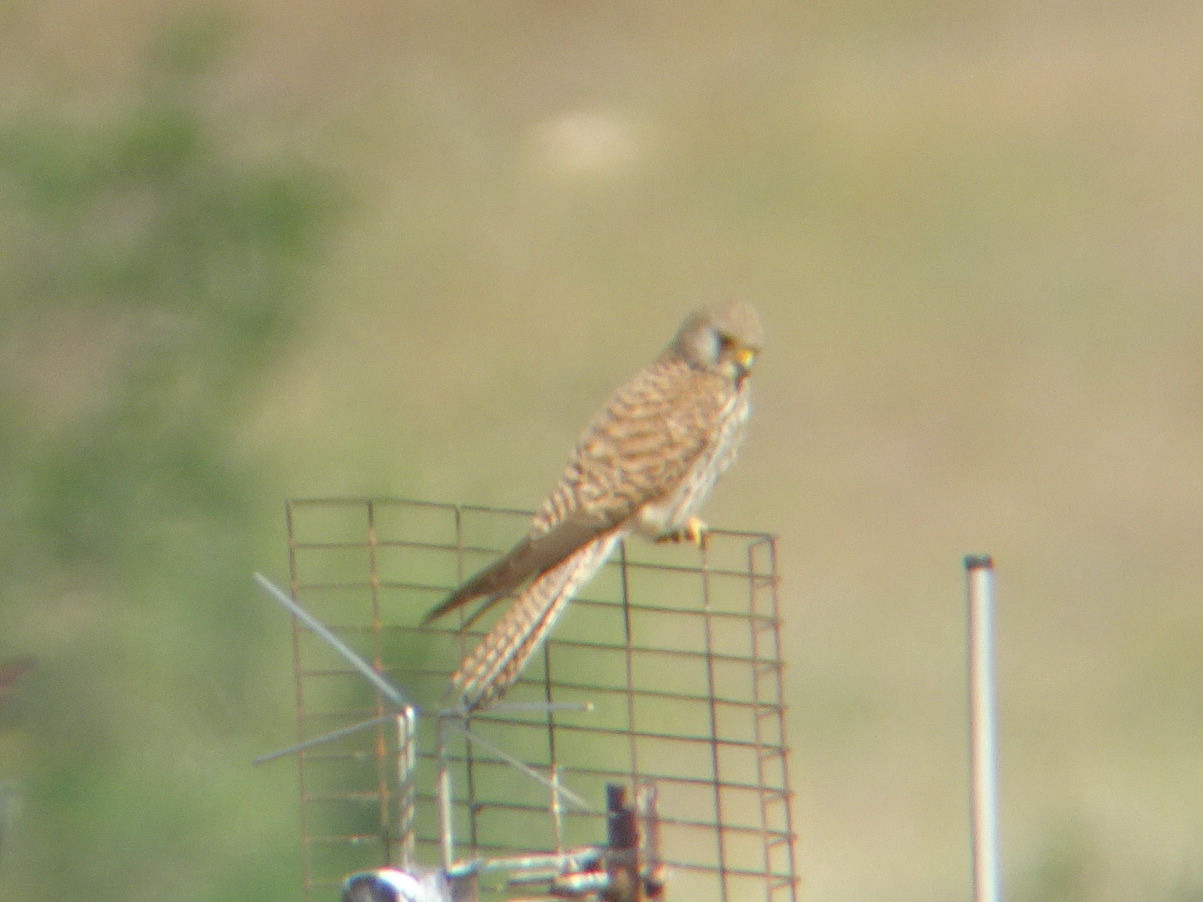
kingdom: Animalia
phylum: Chordata
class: Aves
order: Falconiformes
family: Falconidae
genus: Falco
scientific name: Falco naumanni
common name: Lesser kestrel
